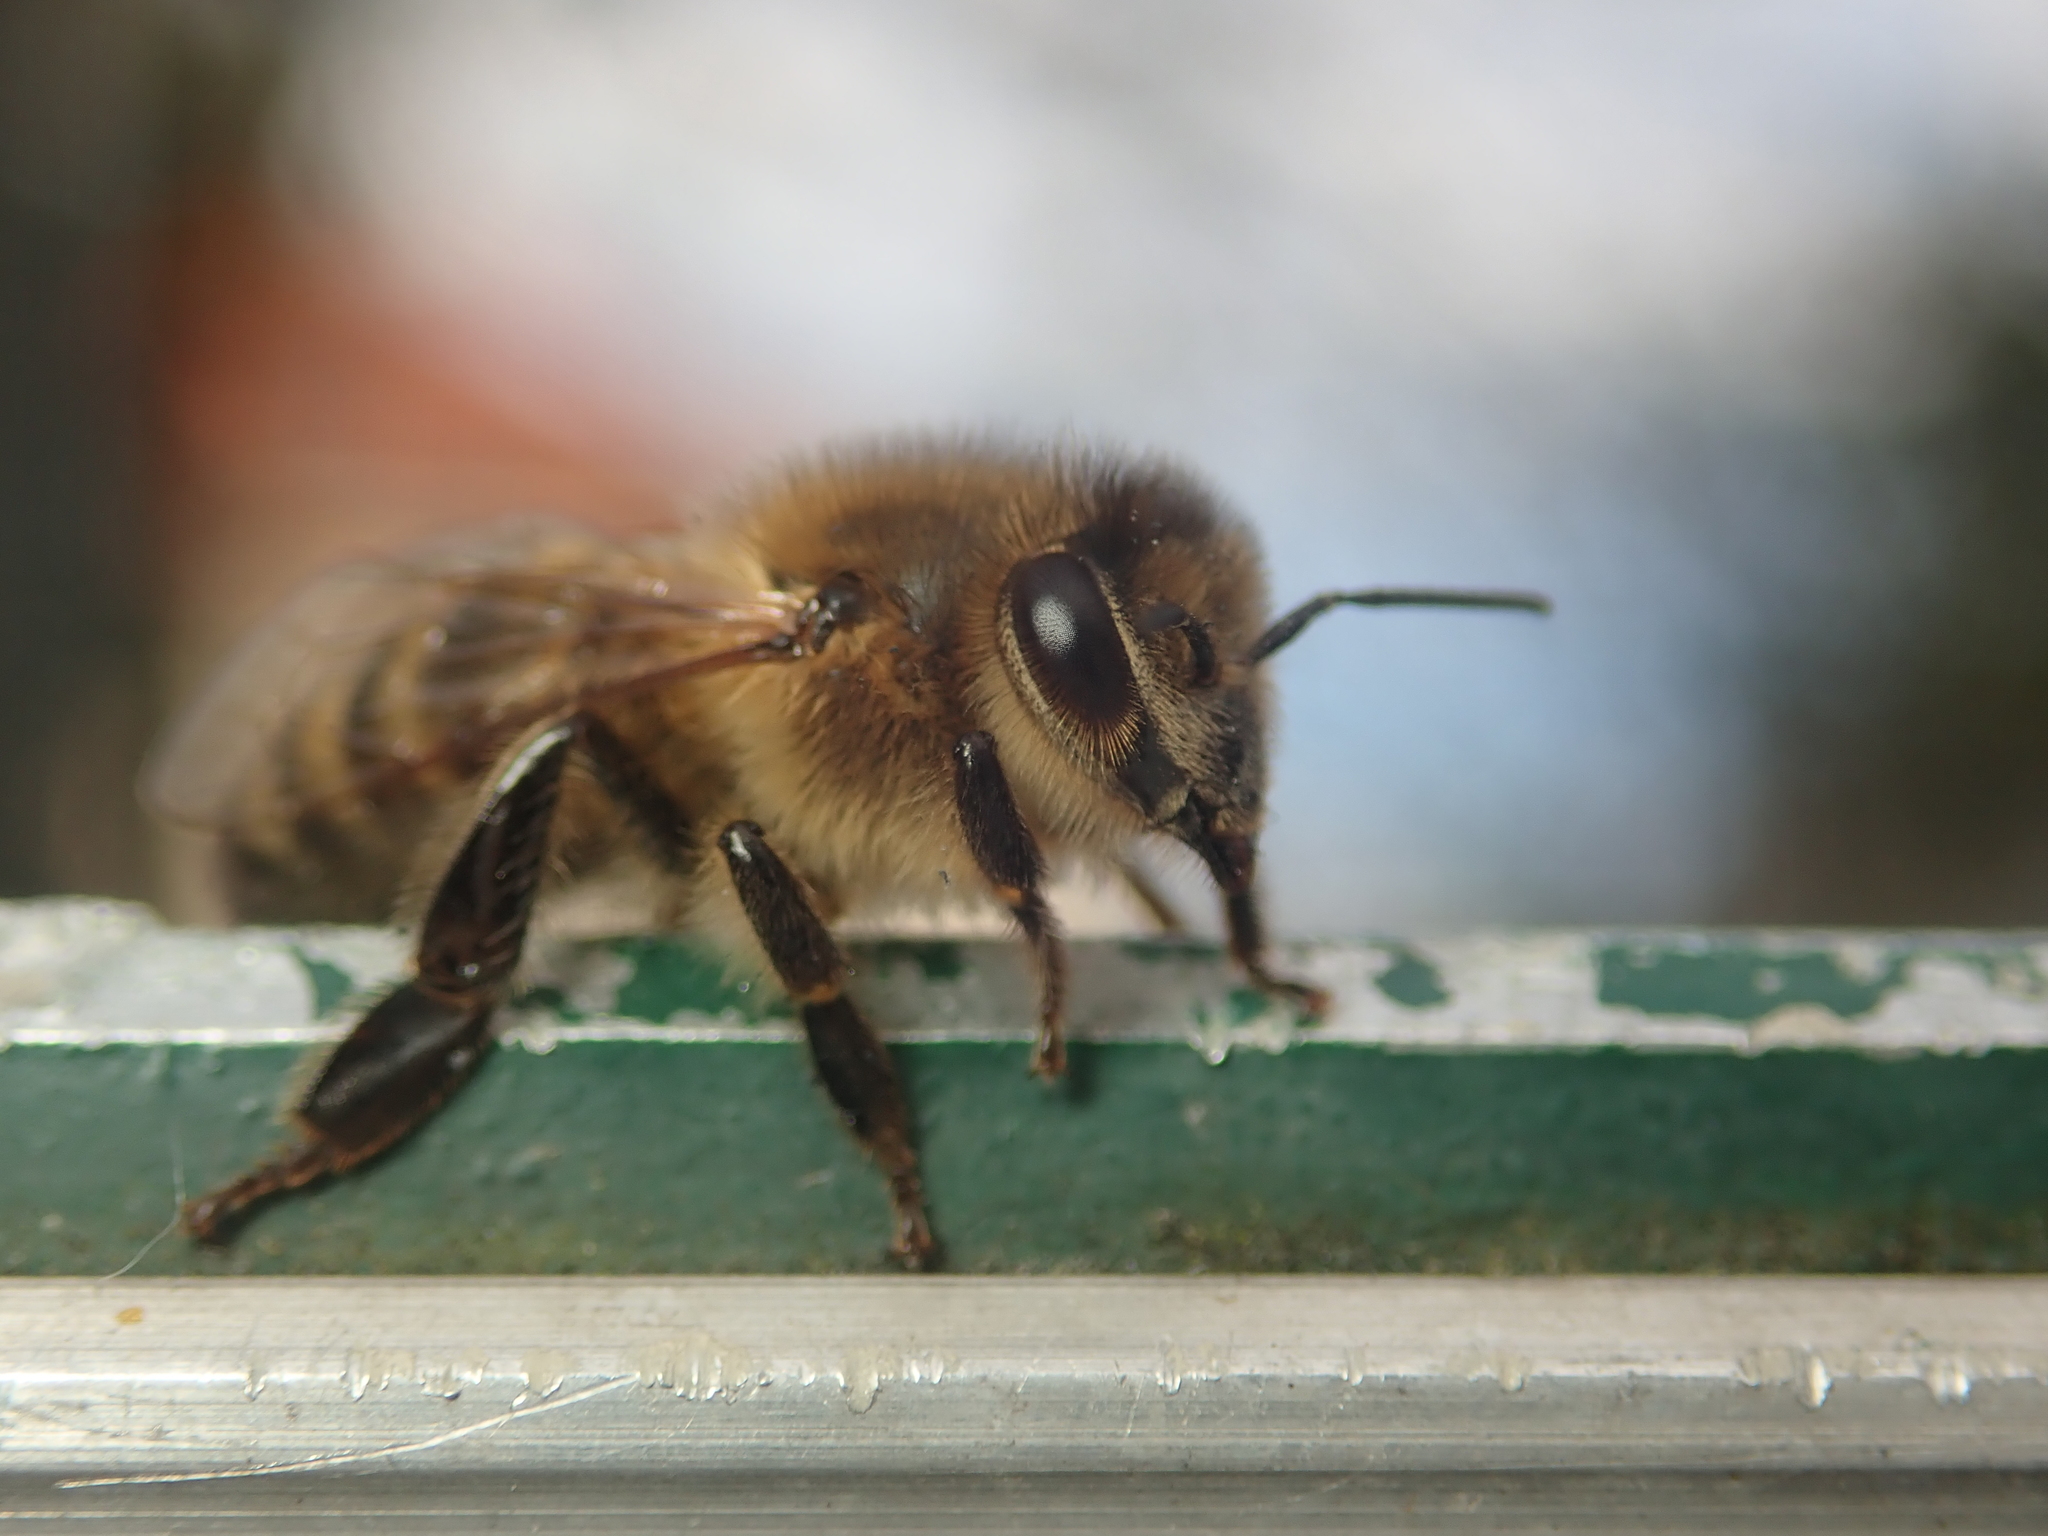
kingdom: Animalia
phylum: Arthropoda
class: Insecta
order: Hymenoptera
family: Apidae
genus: Apis
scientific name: Apis mellifera
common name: Honey bee
